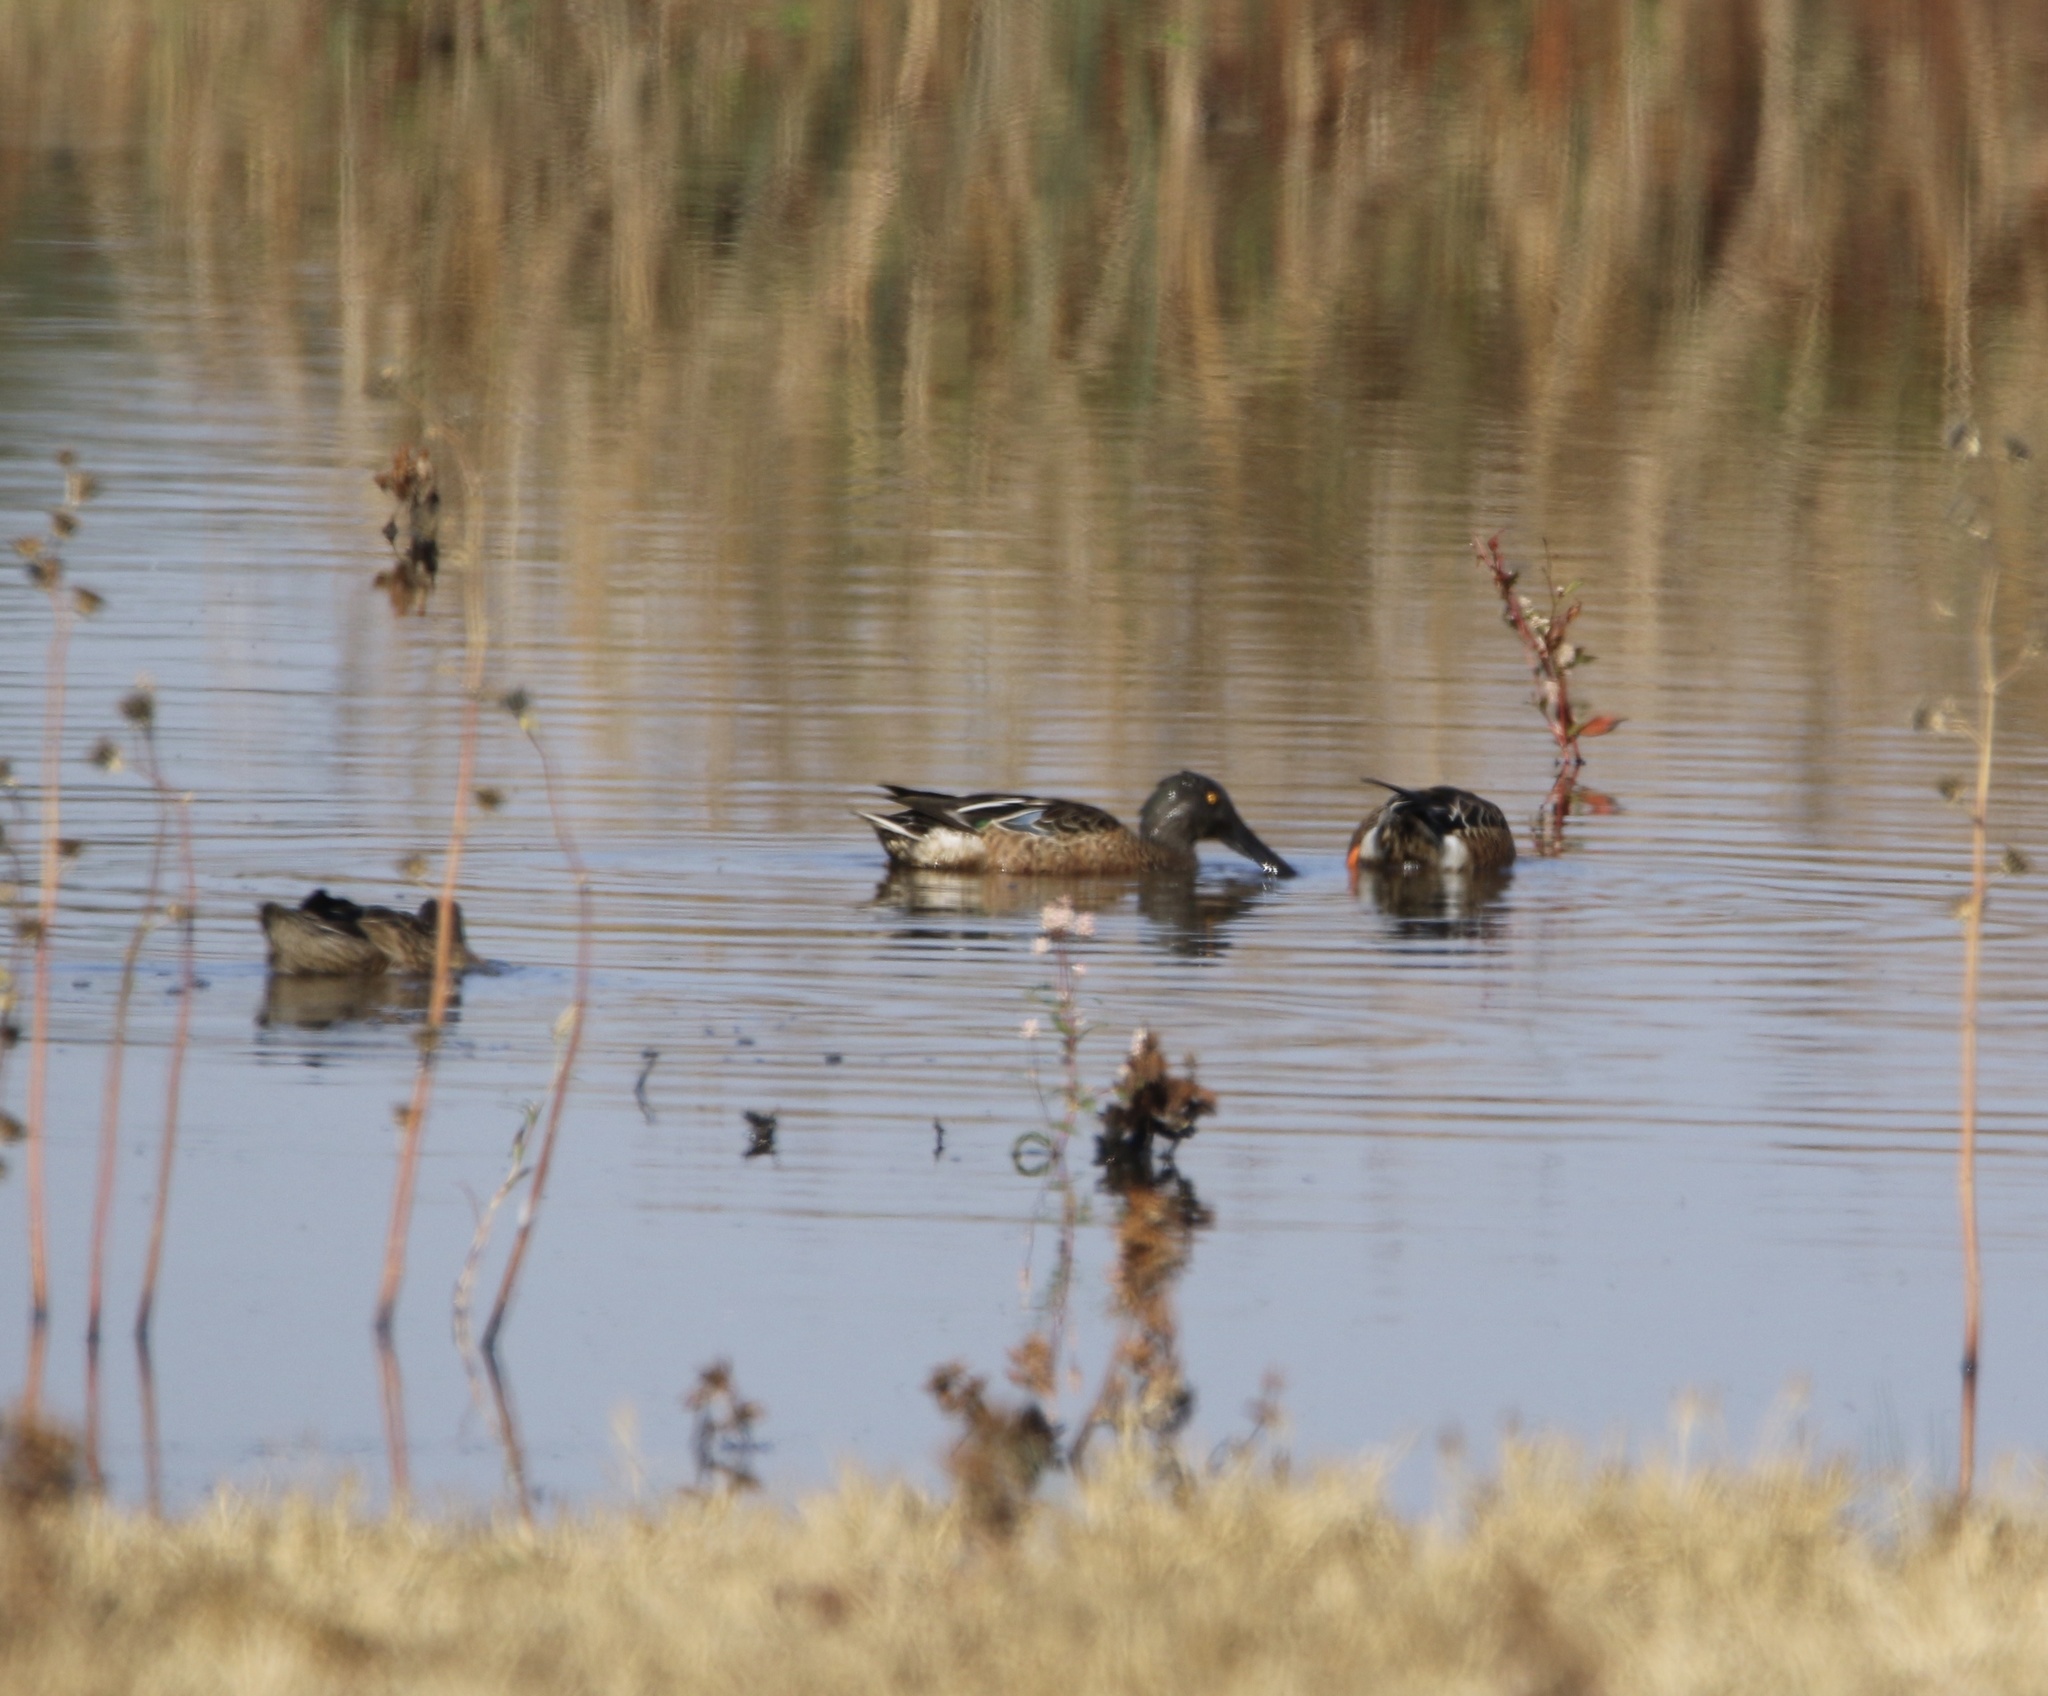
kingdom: Animalia
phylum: Chordata
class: Aves
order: Anseriformes
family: Anatidae
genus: Spatula
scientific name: Spatula clypeata
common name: Northern shoveler
